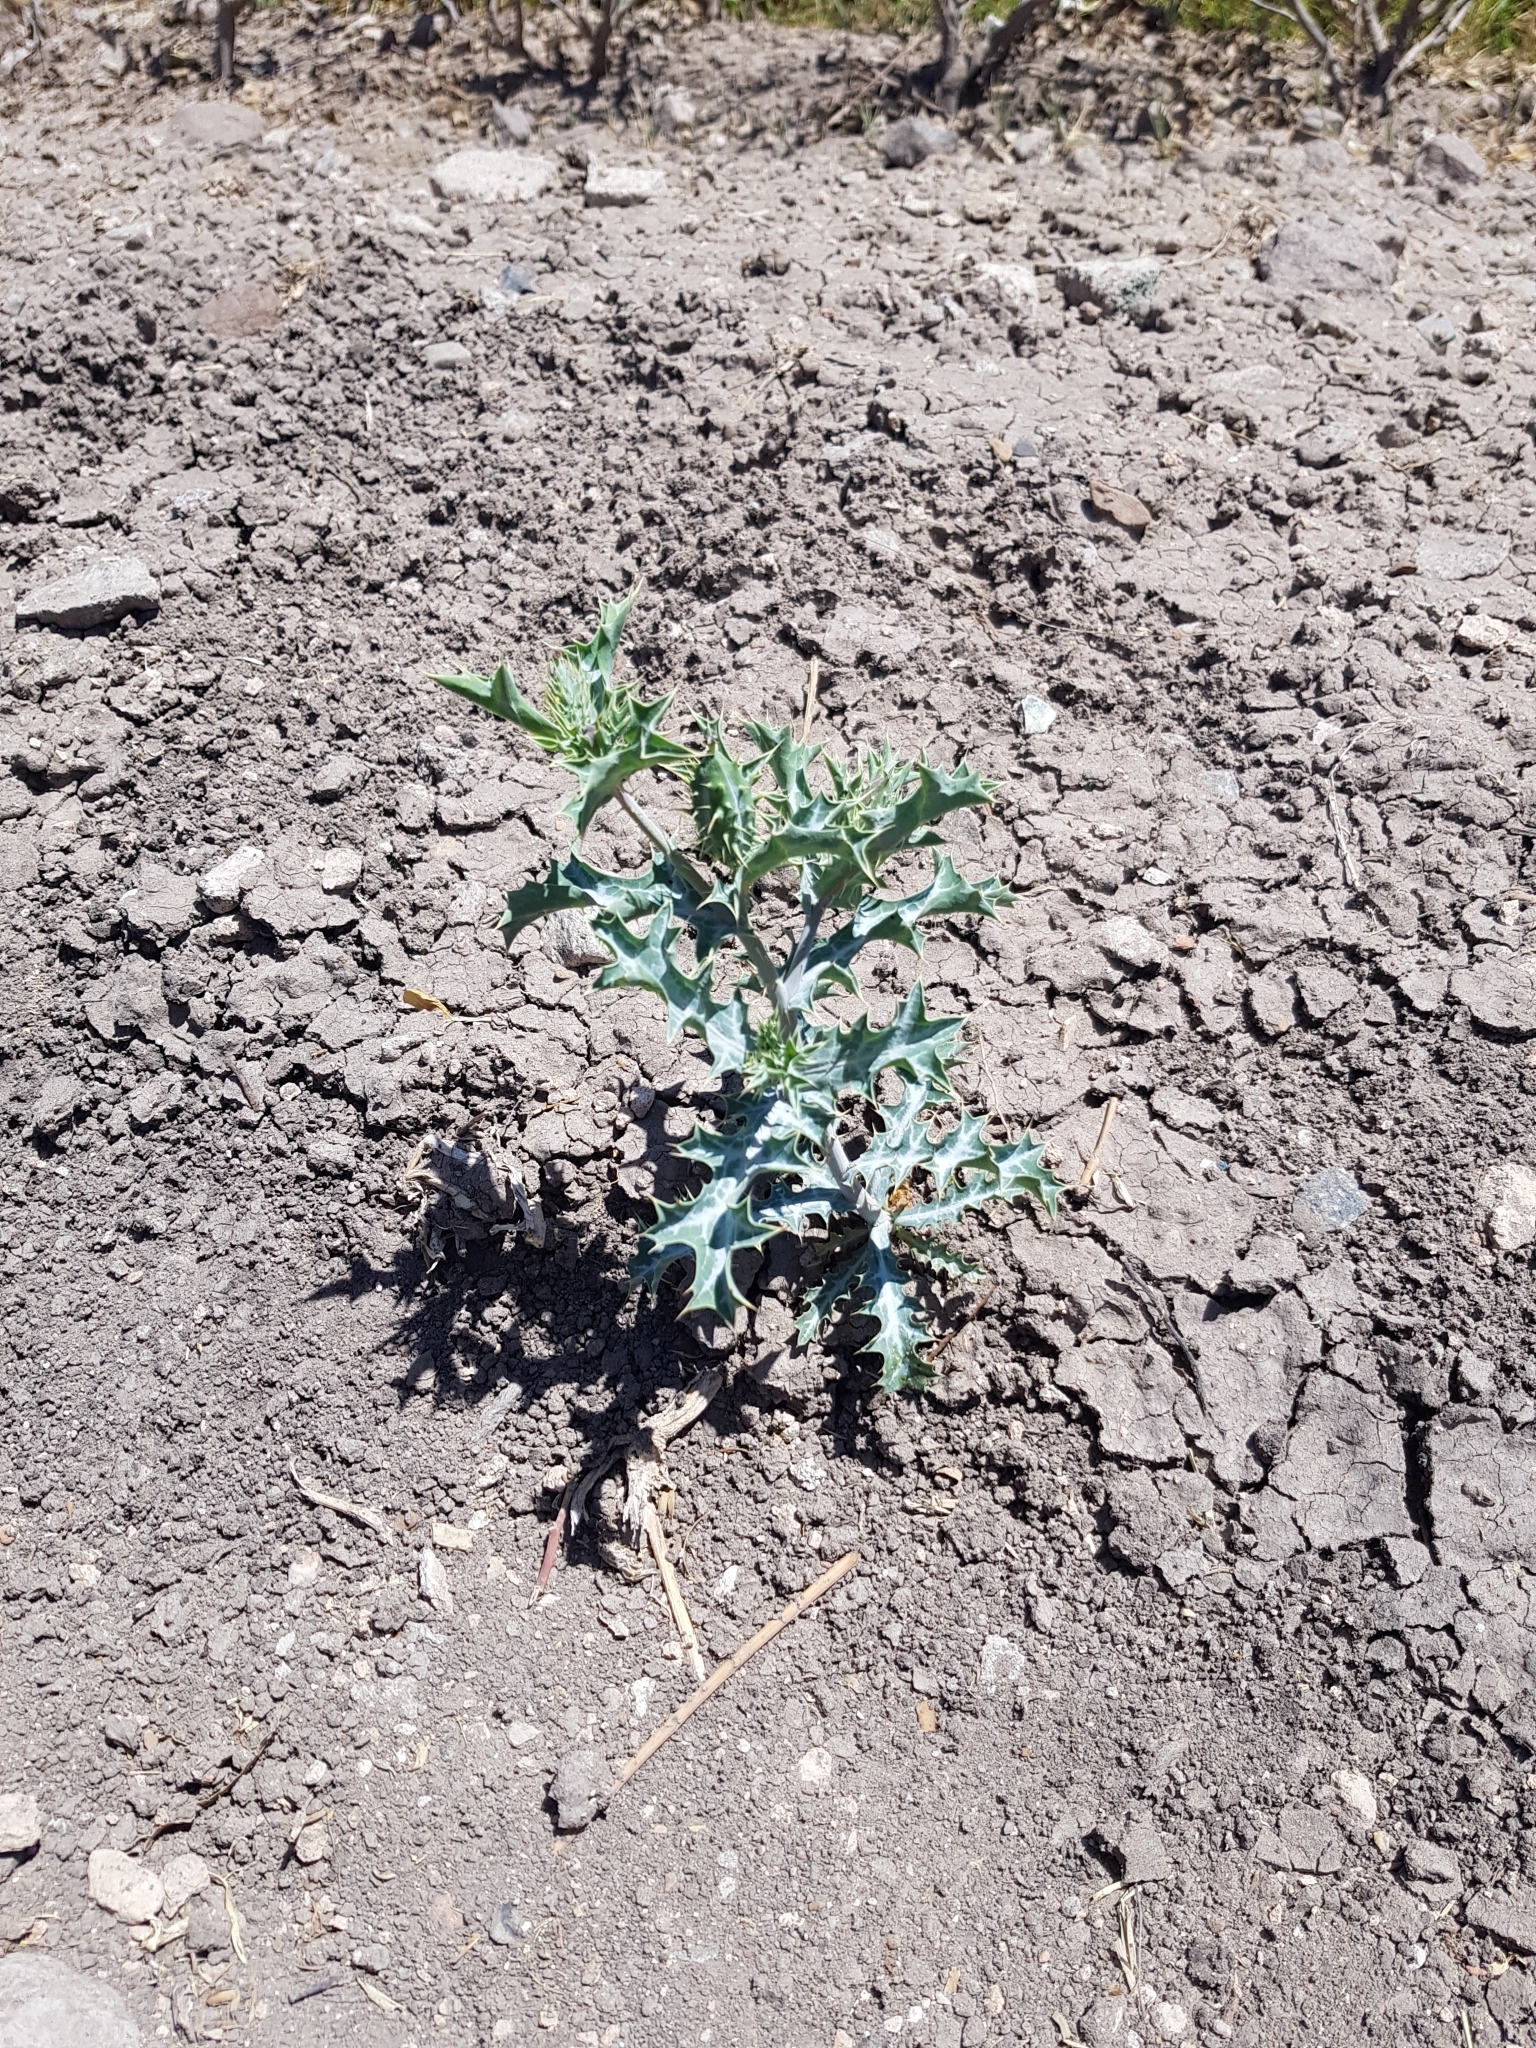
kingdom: Plantae
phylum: Tracheophyta
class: Magnoliopsida
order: Ranunculales
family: Papaveraceae
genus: Argemone
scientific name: Argemone mexicana
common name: Mexican poppy
